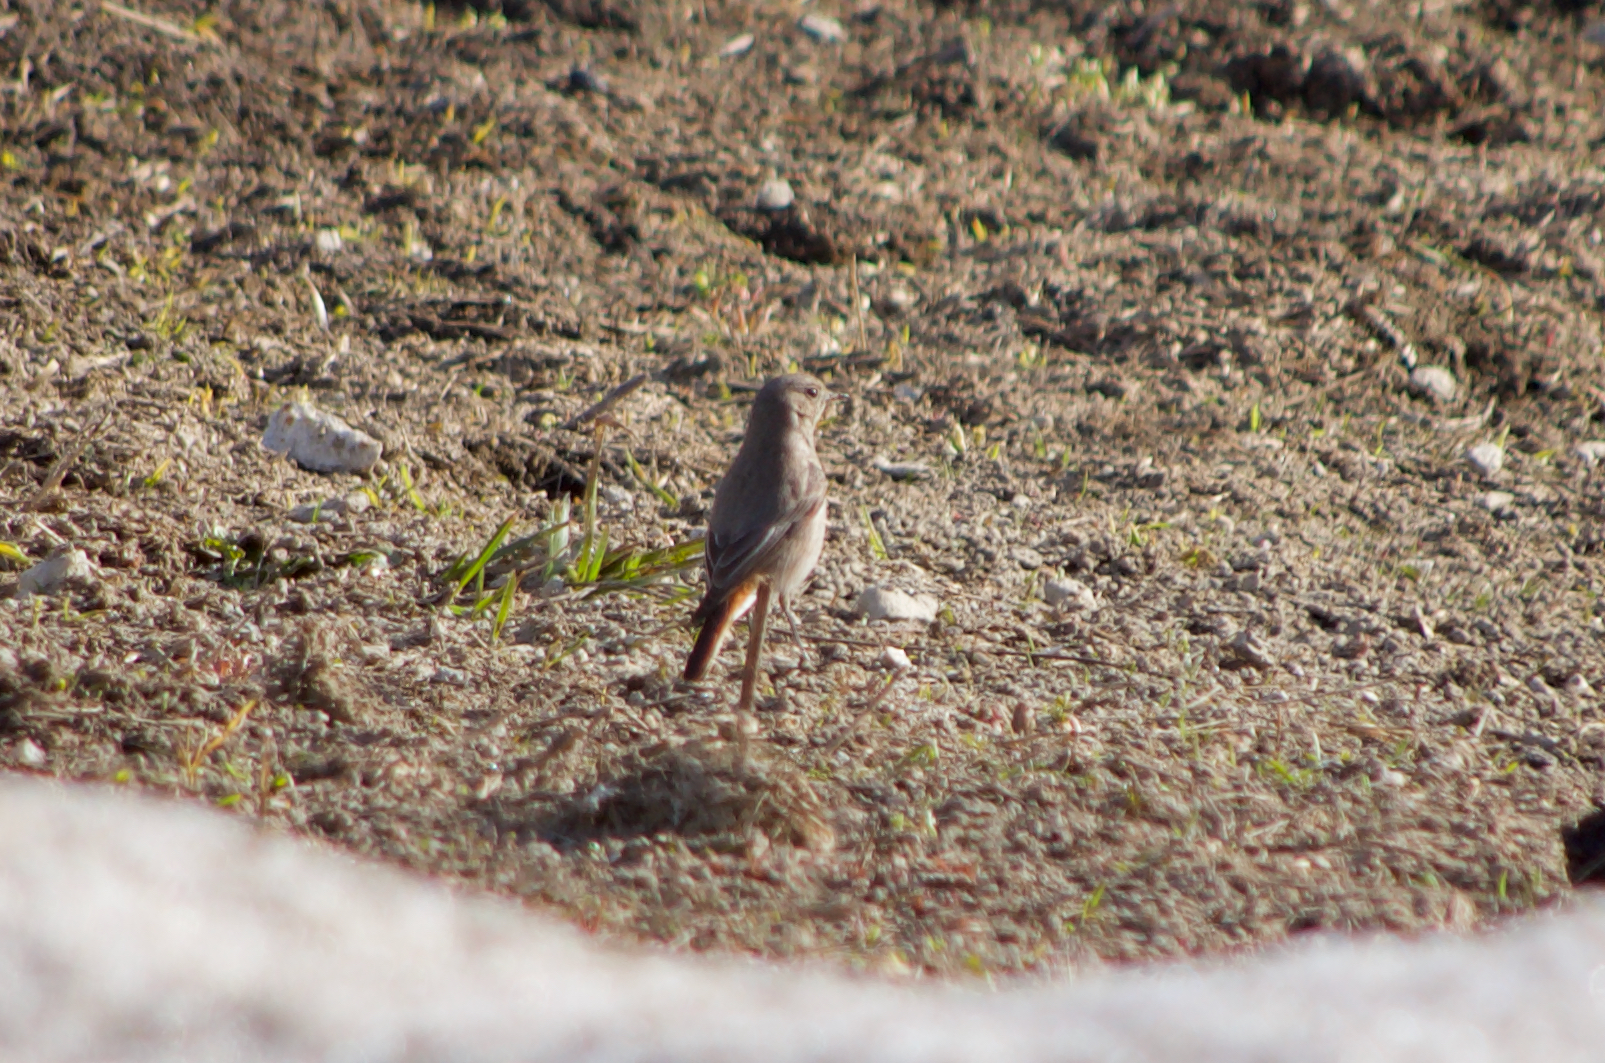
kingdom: Animalia
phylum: Chordata
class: Aves
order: Passeriformes
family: Muscicapidae
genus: Phoenicurus
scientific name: Phoenicurus ochruros
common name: Black redstart
